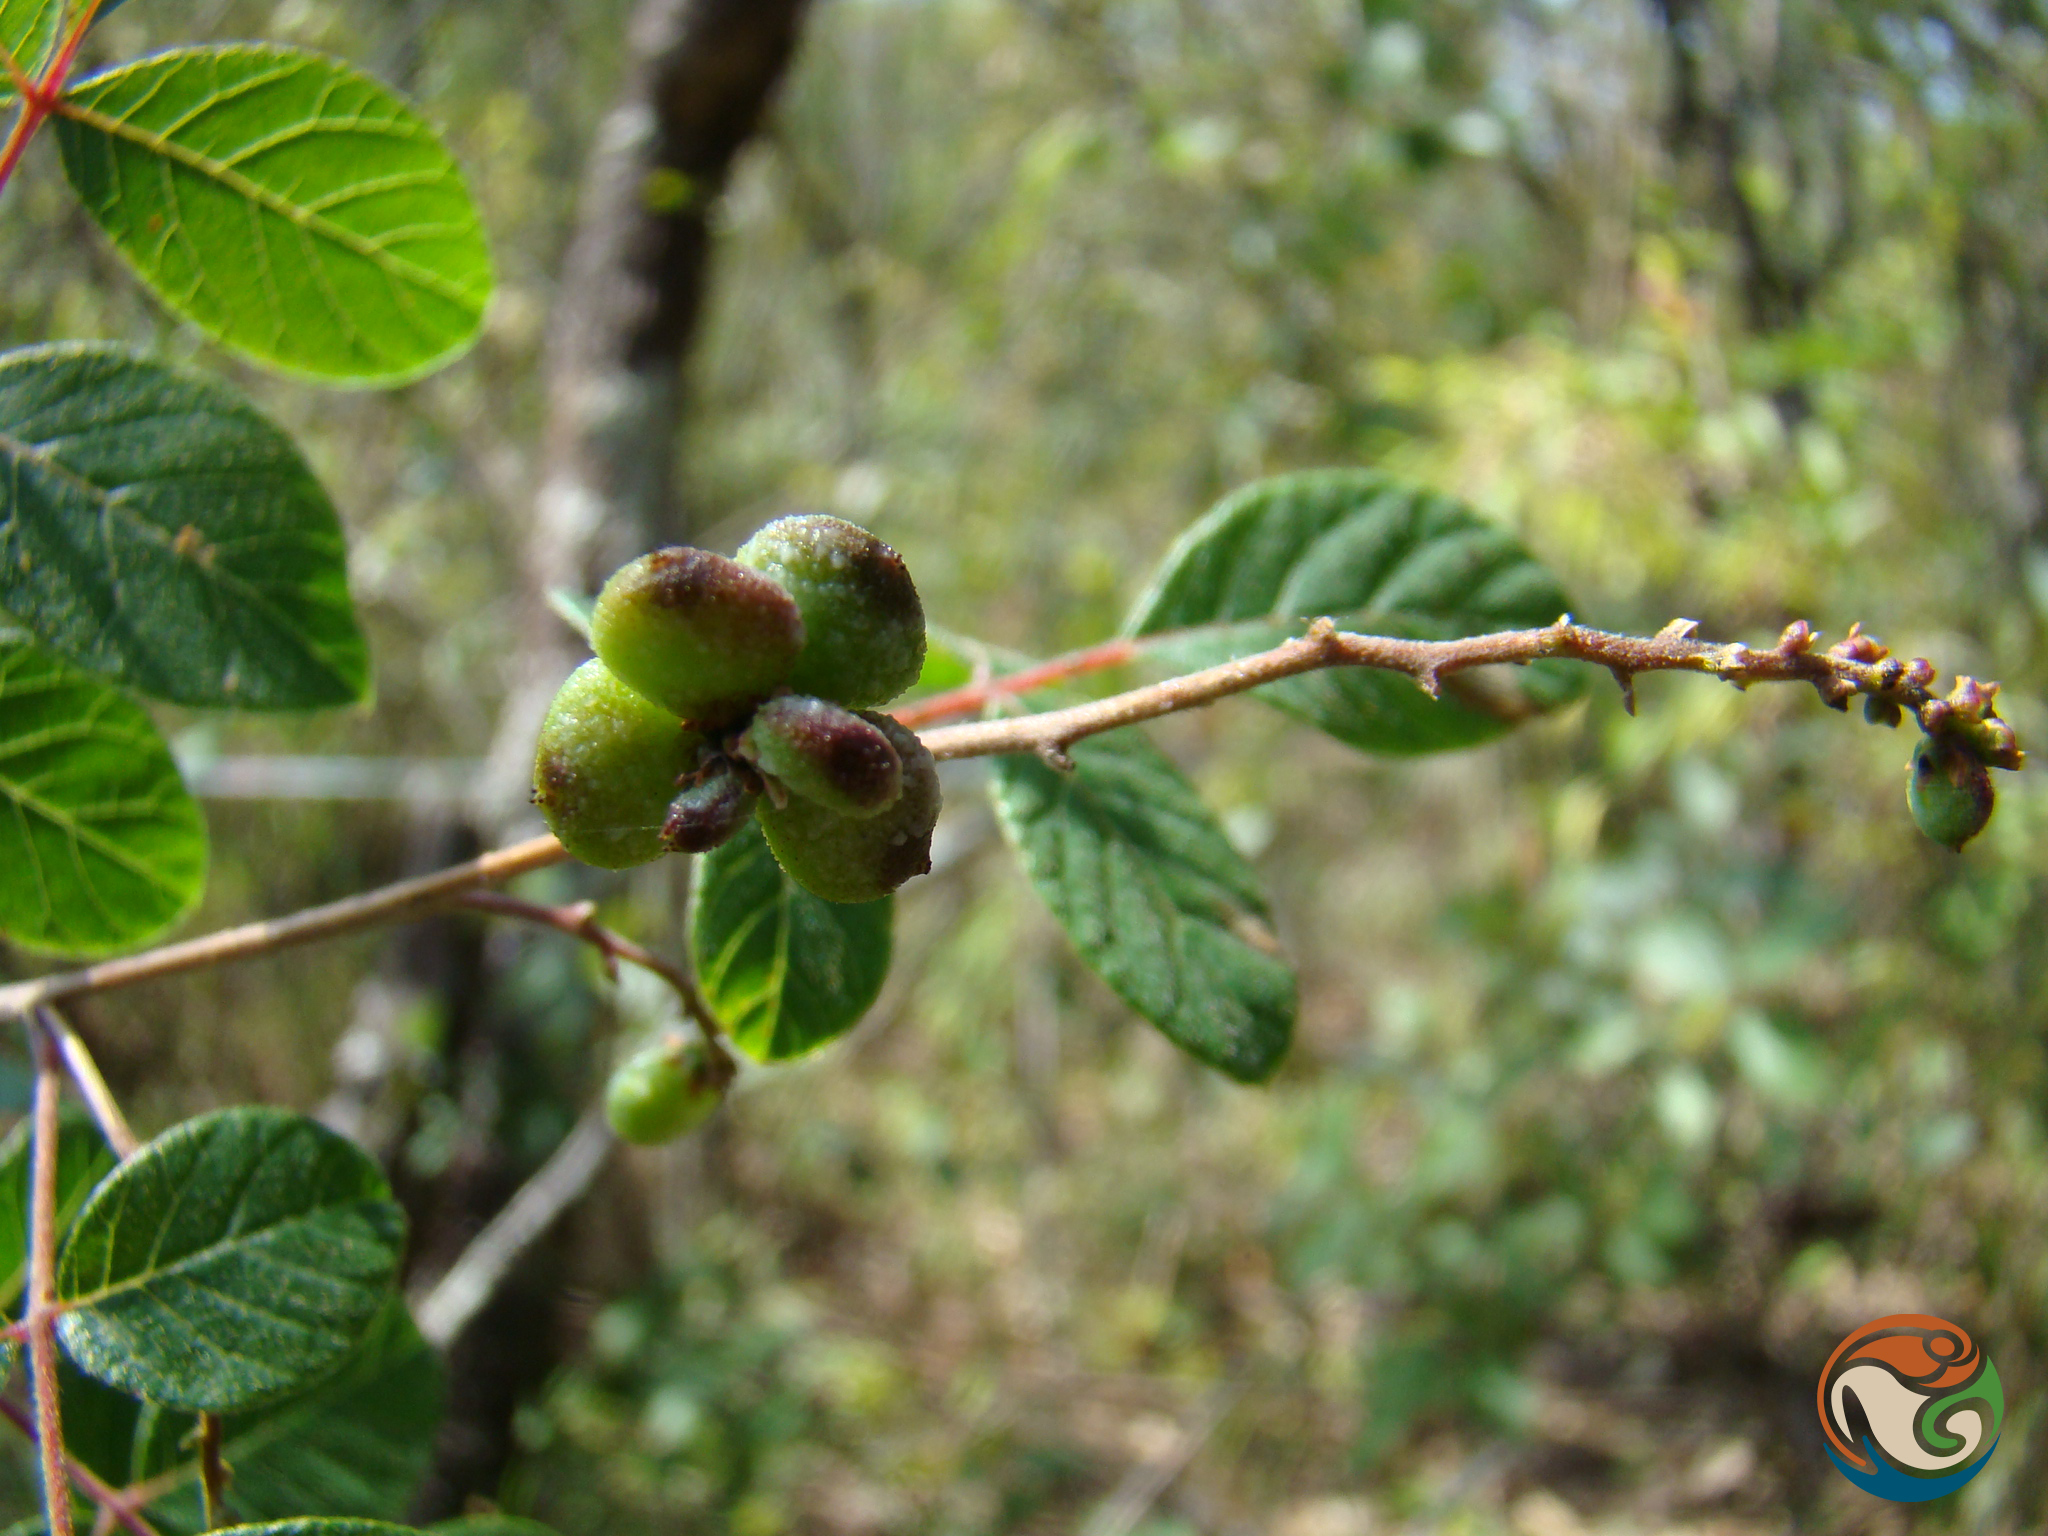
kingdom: Plantae
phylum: Tracheophyta
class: Magnoliopsida
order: Sapindales
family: Anacardiaceae
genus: Rhus
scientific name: Rhus terebinthifolia
